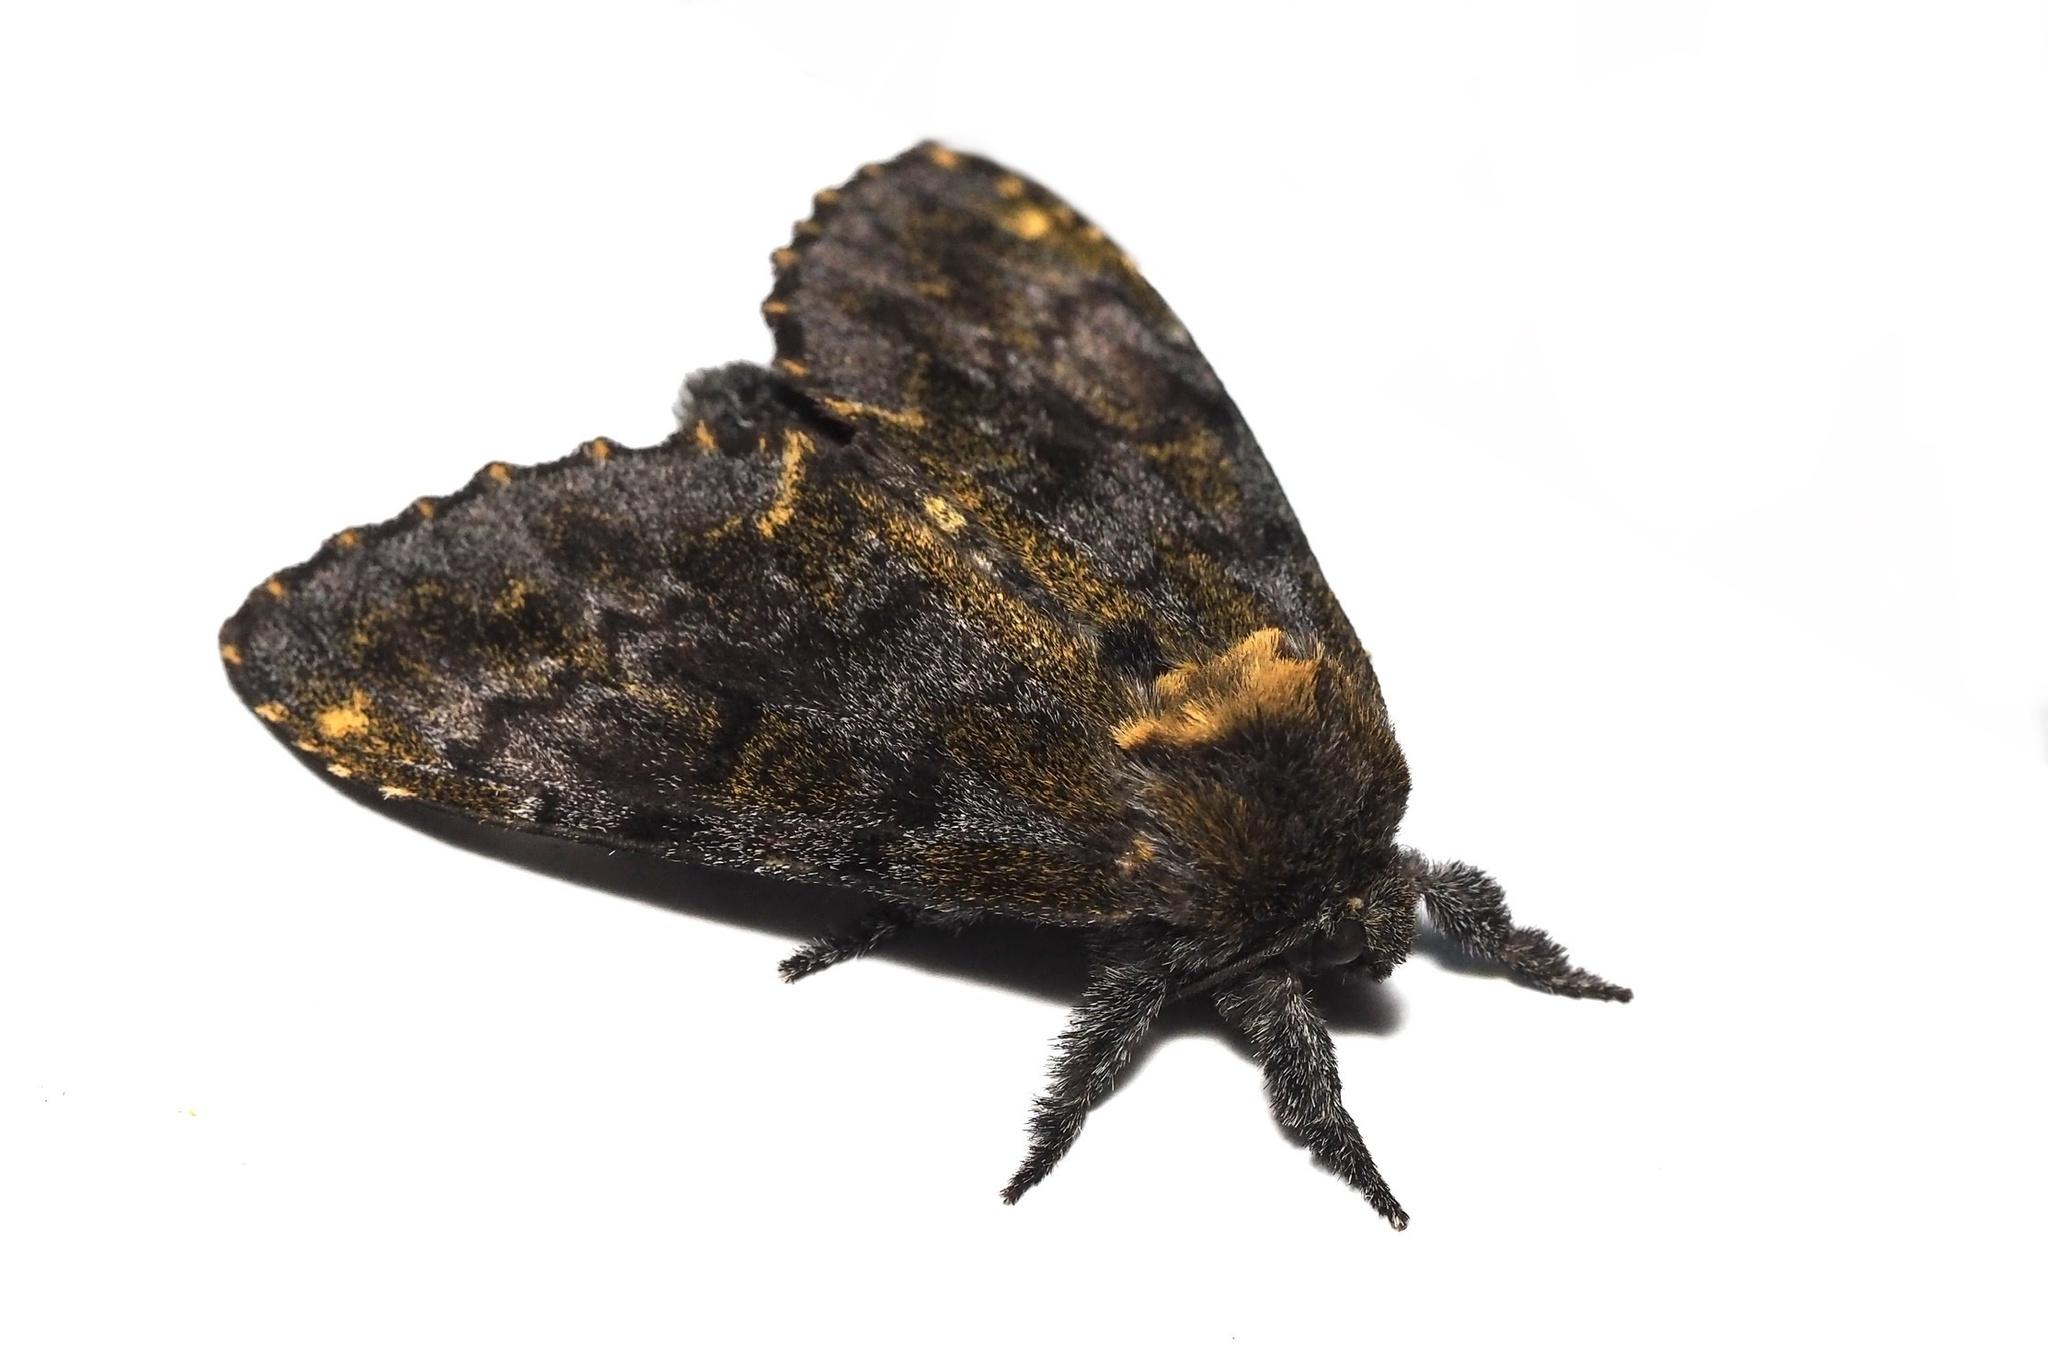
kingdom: Animalia
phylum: Arthropoda
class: Insecta
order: Lepidoptera
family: Notodontidae
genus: Zaranga
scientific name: Zaranga permagna
